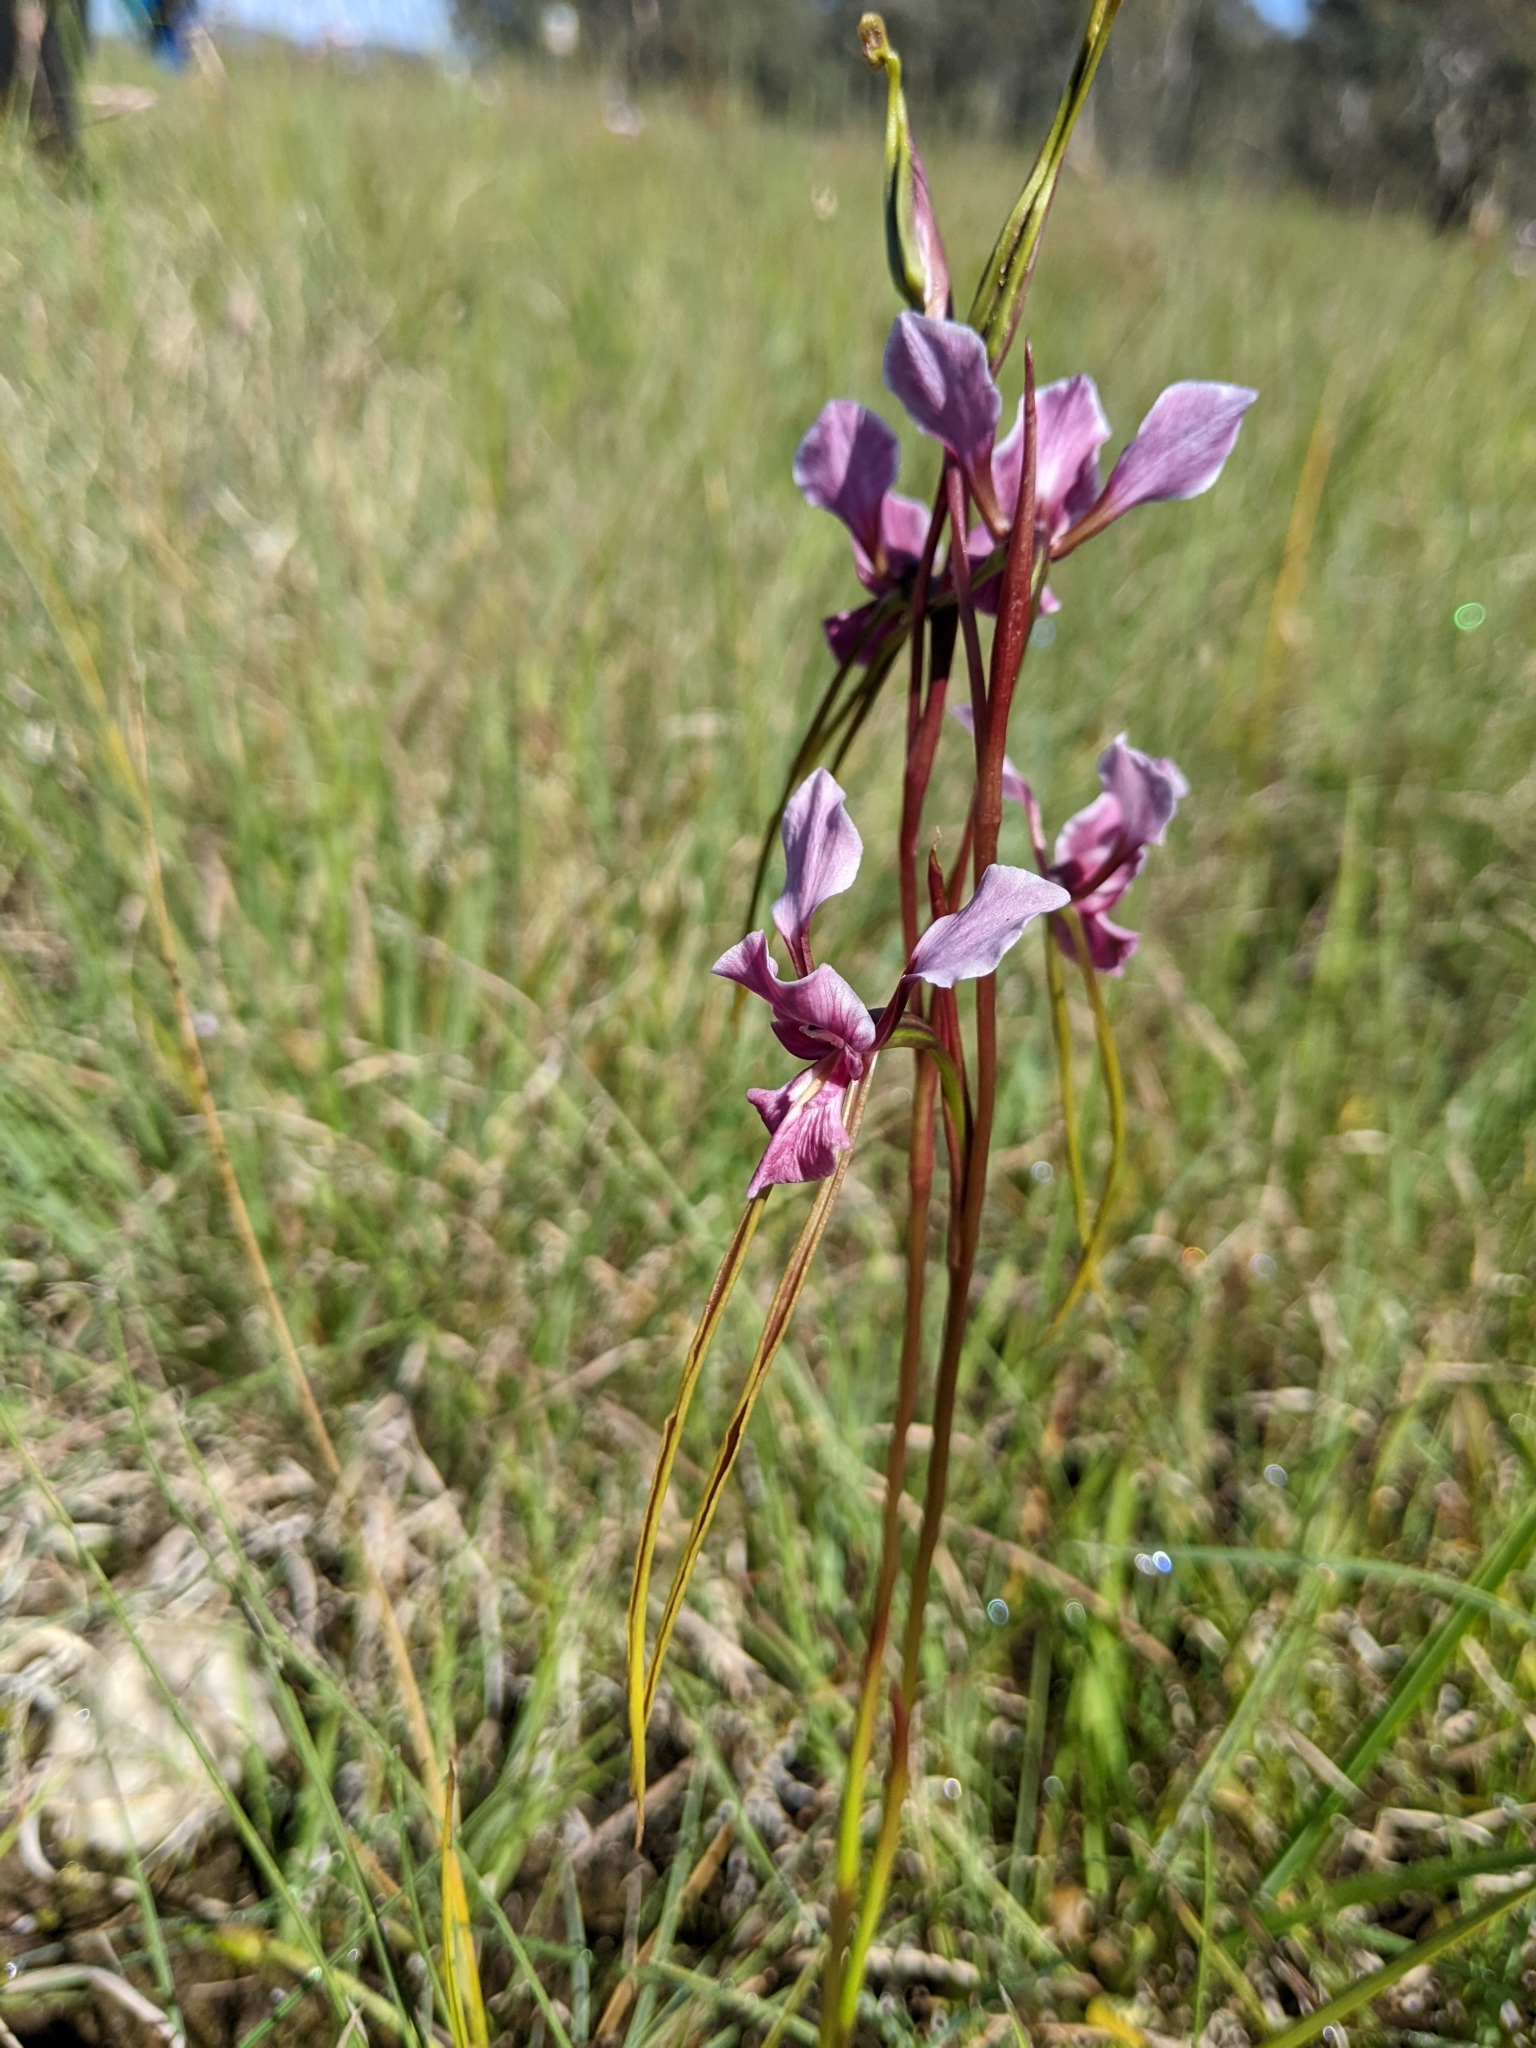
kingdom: Plantae
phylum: Tracheophyta
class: Liliopsida
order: Asparagales
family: Orchidaceae
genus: Diuris
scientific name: Diuris punctata
